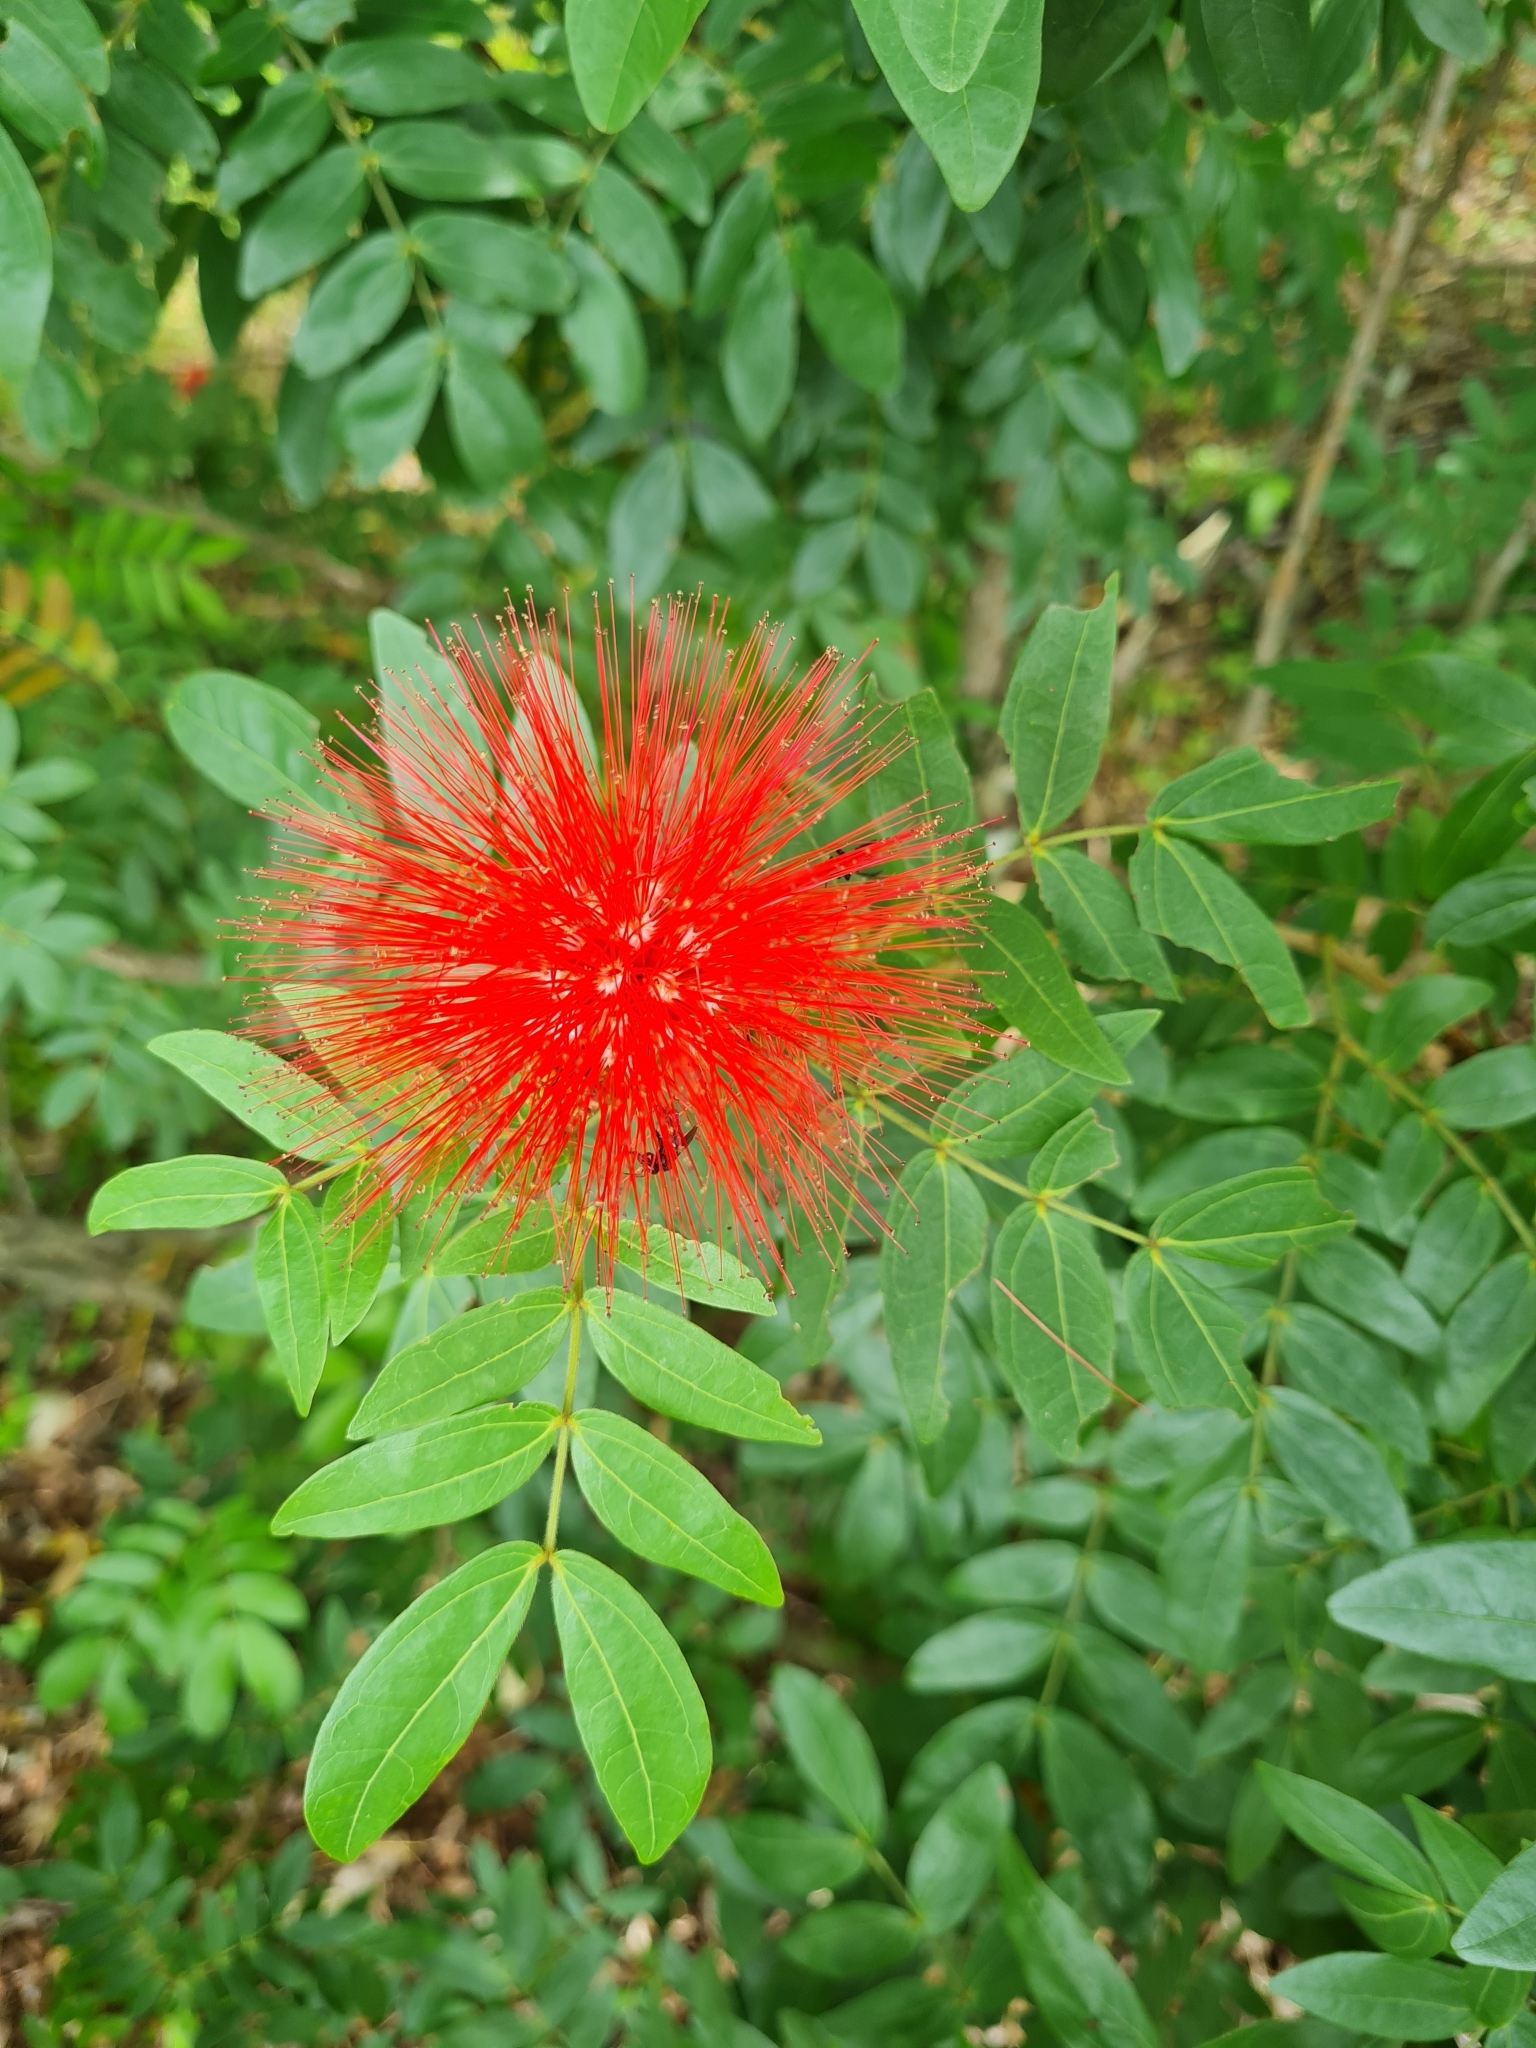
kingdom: Plantae
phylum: Tracheophyta
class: Magnoliopsida
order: Fabales
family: Fabaceae
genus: Calliandra
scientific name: Calliandra haematocephala
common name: Blood red tassel flower
